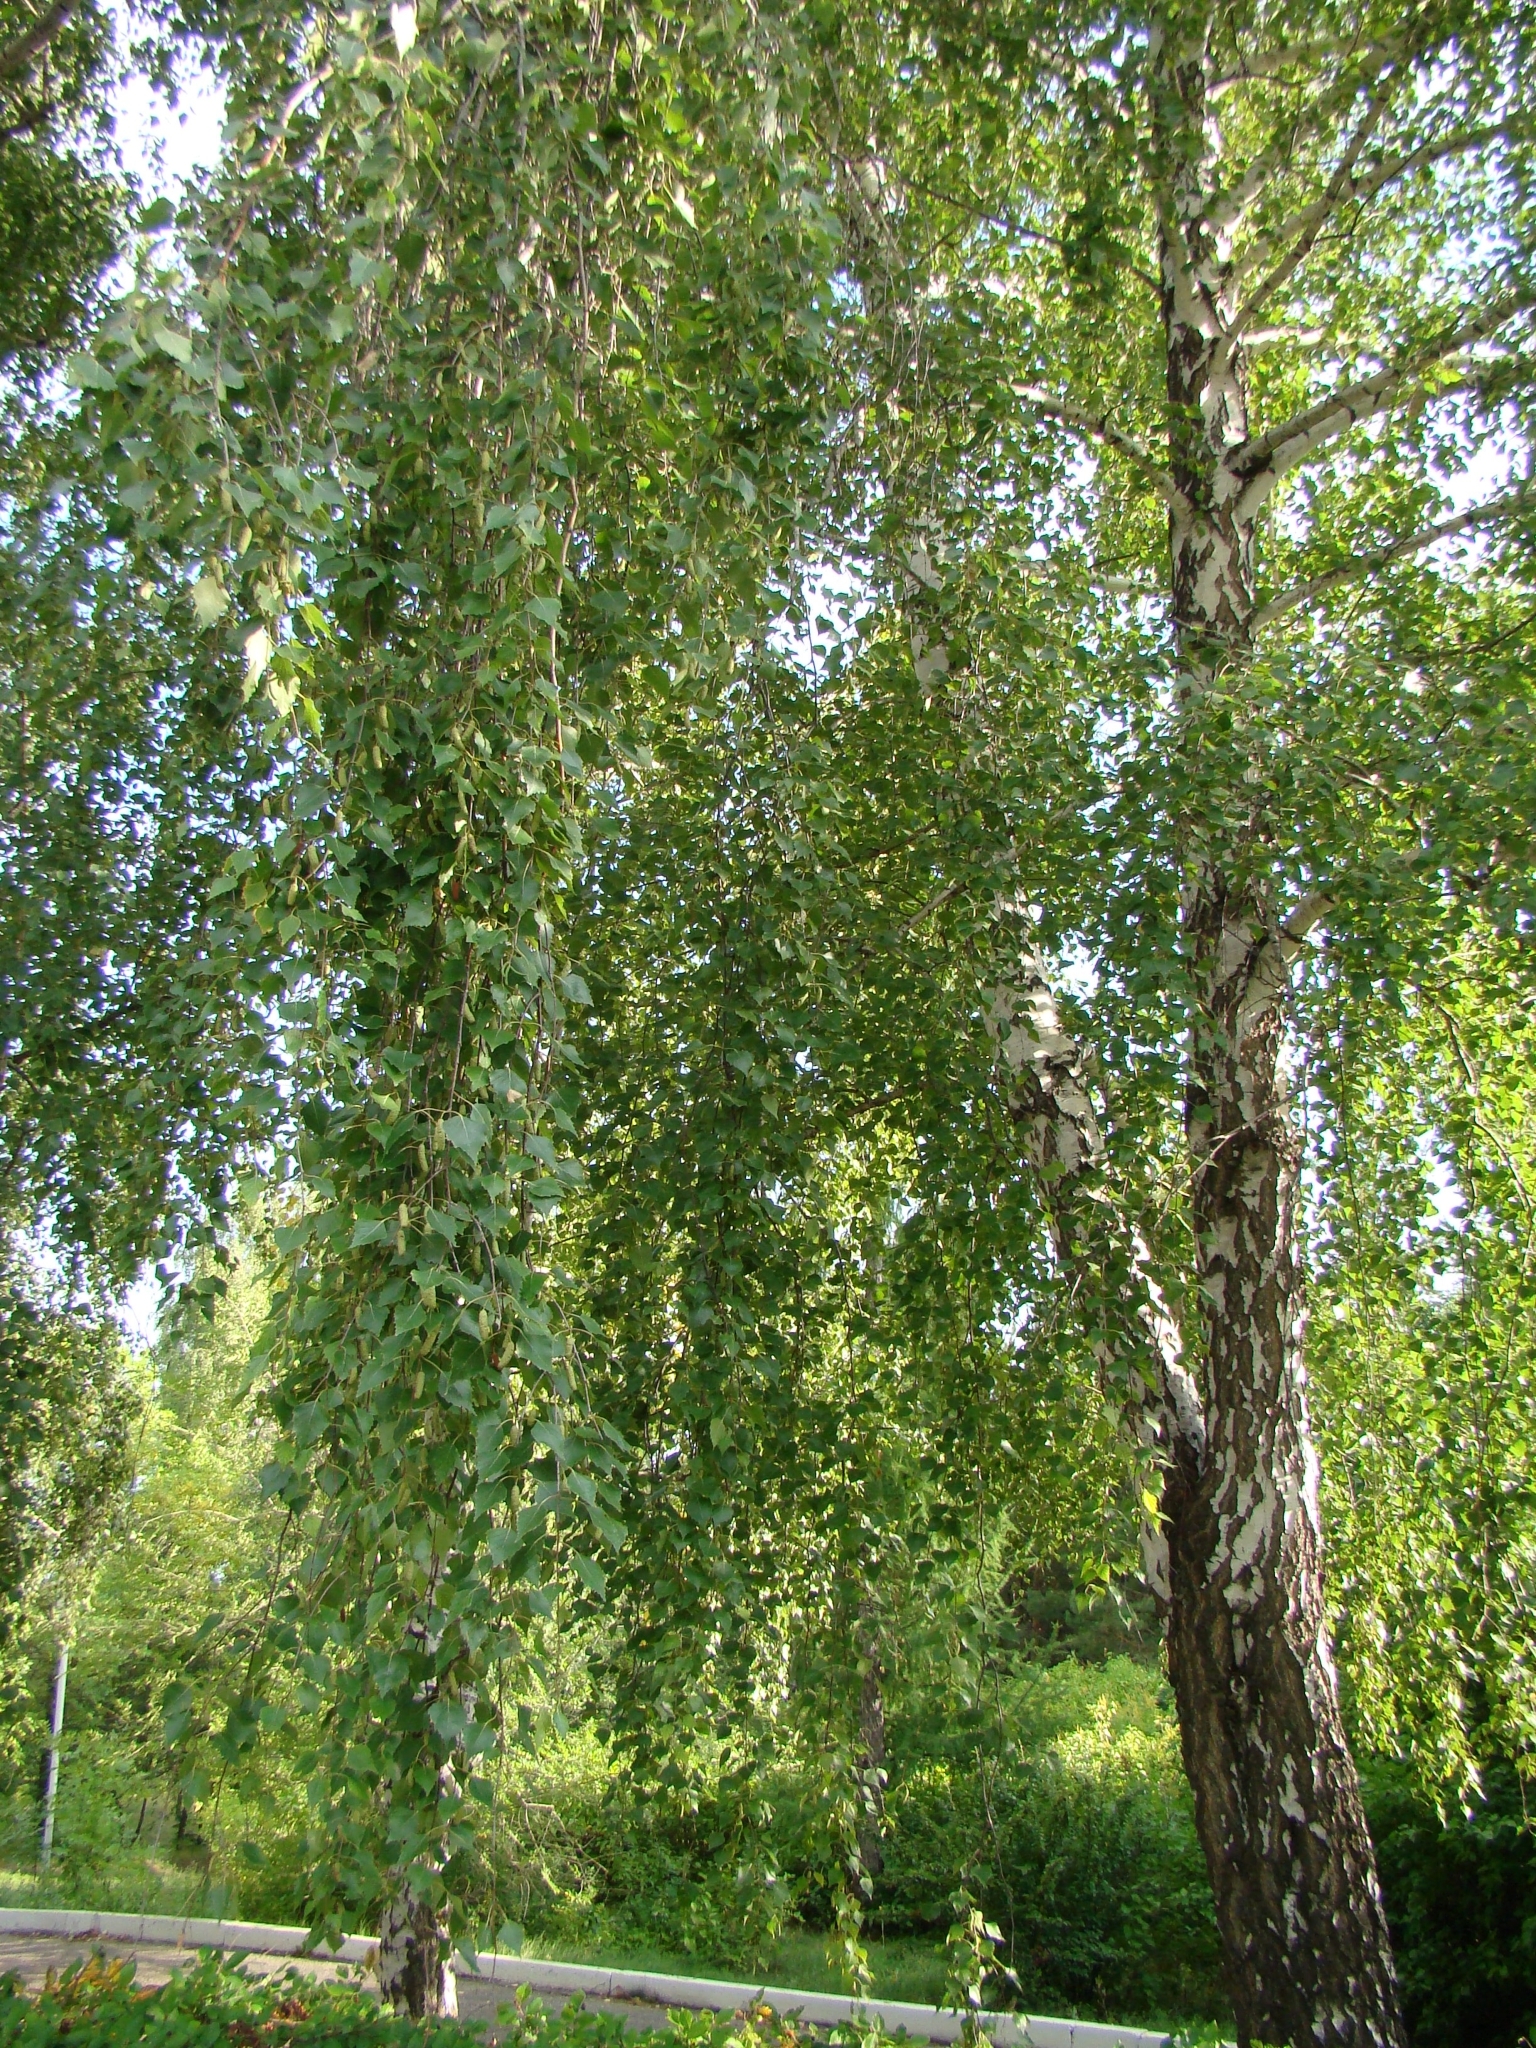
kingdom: Plantae
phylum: Tracheophyta
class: Magnoliopsida
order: Fagales
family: Betulaceae
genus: Betula
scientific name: Betula pendula
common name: Silver birch
